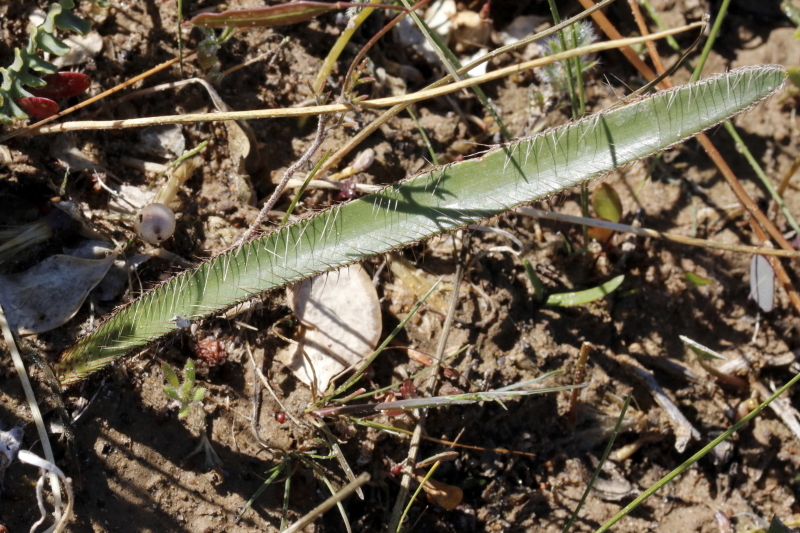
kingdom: Plantae
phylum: Tracheophyta
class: Liliopsida
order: Asparagales
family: Amaryllidaceae
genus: Crossyne
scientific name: Crossyne flava
